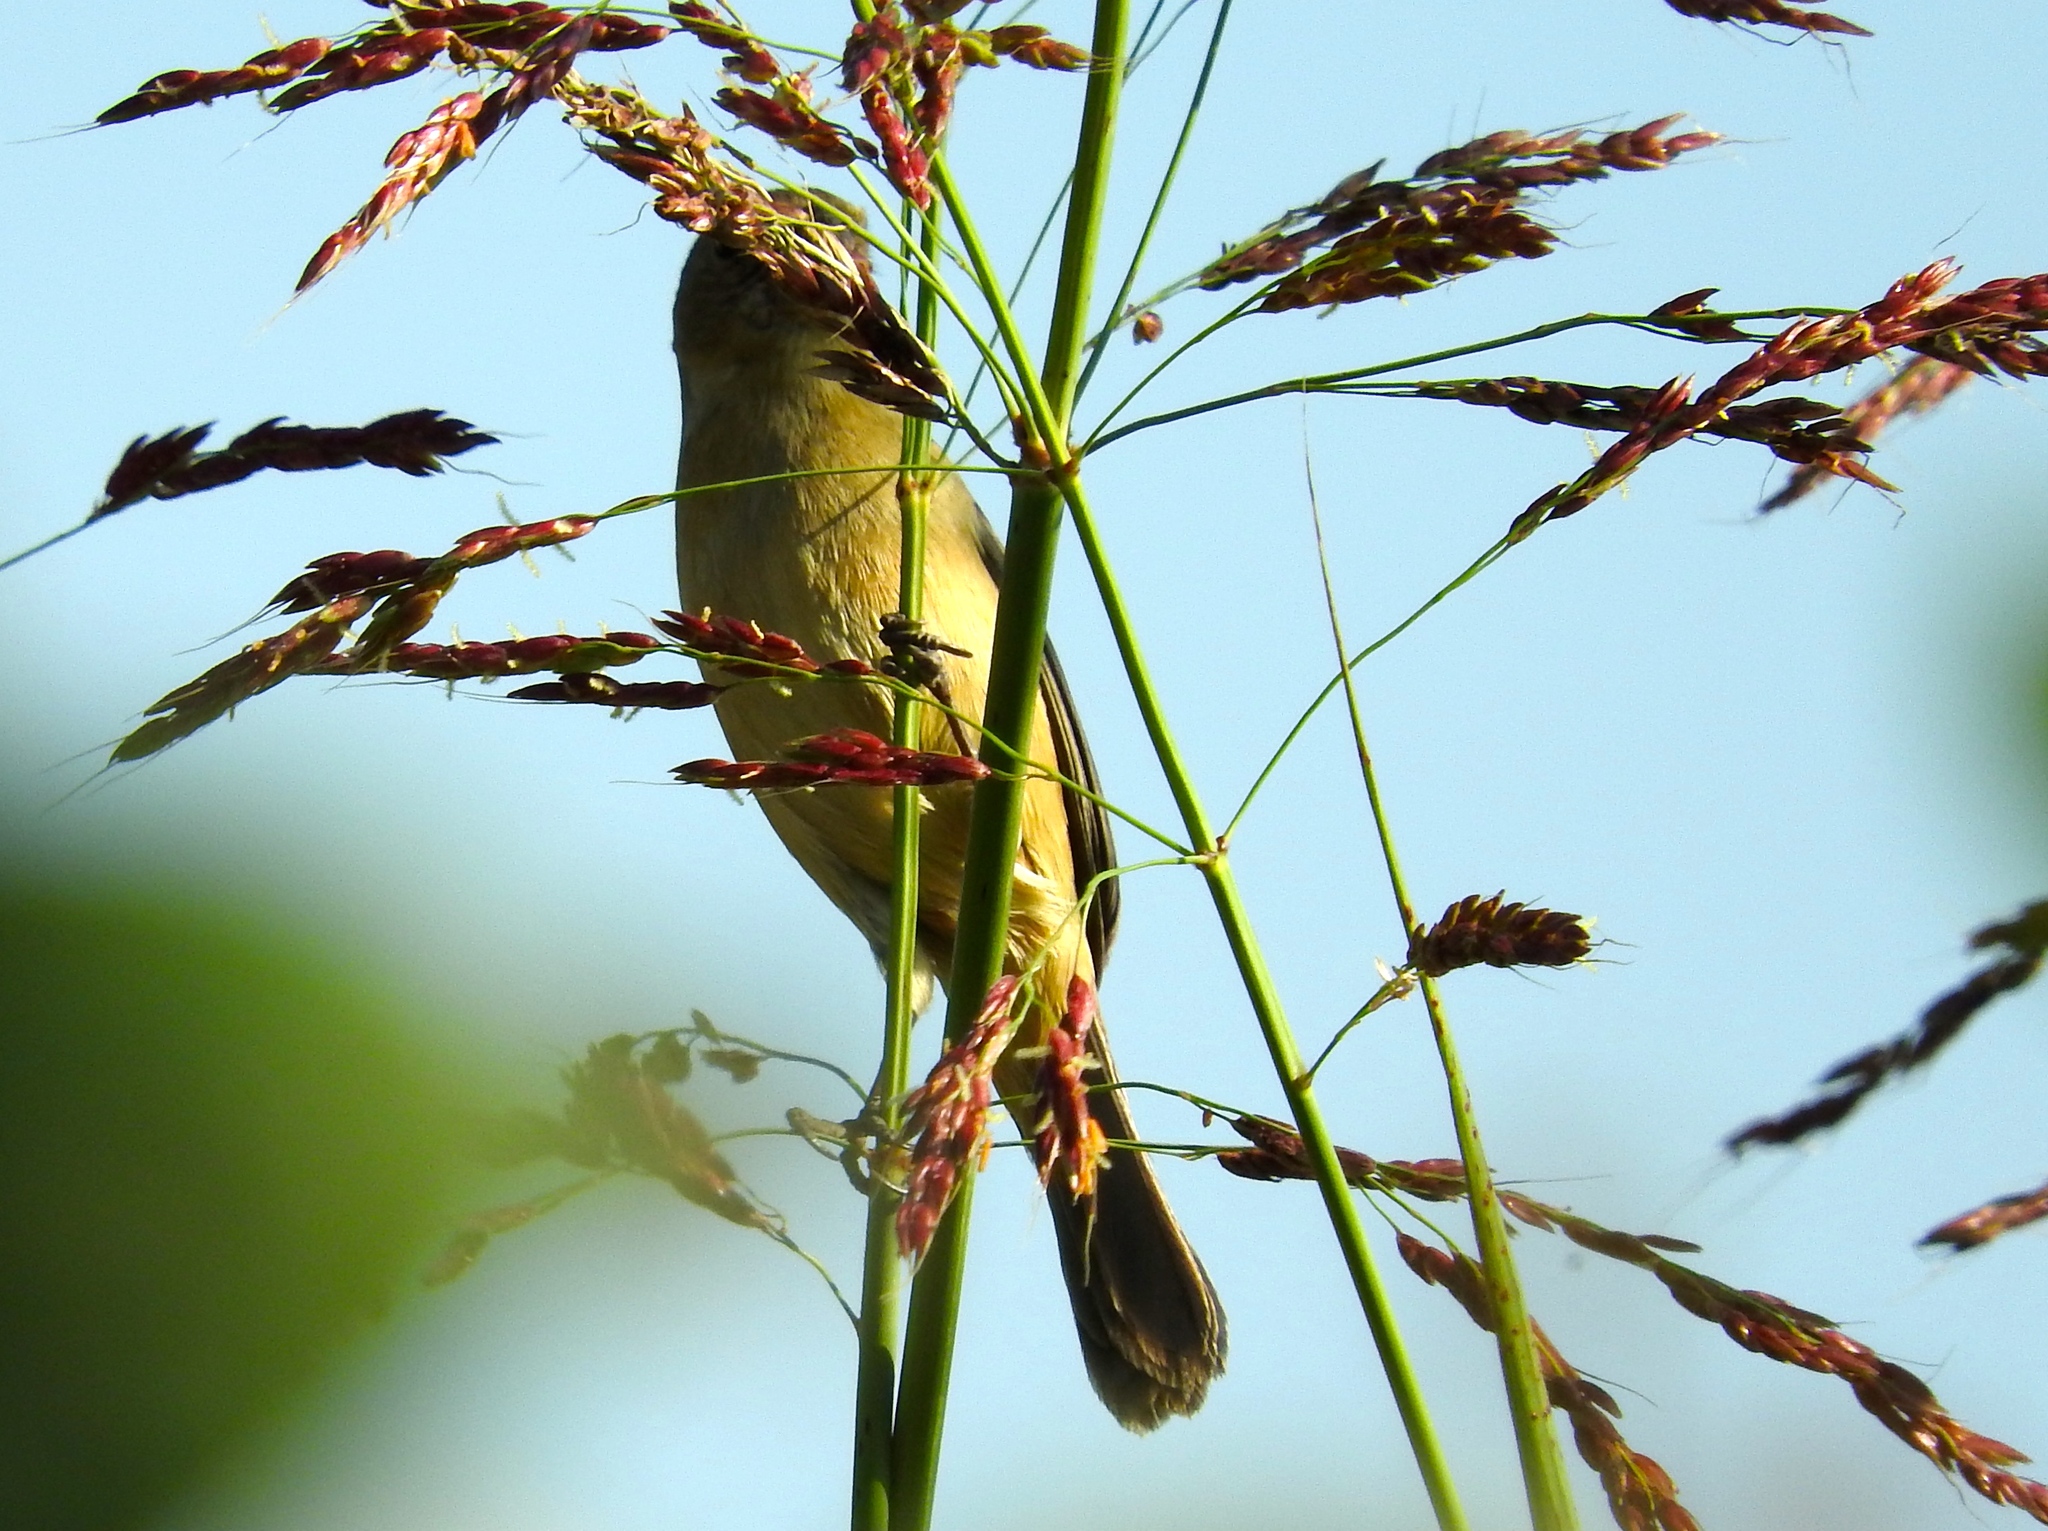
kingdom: Animalia
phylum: Chordata
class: Aves
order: Passeriformes
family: Thraupidae
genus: Sporophila
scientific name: Sporophila torqueola
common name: White-collared seedeater
